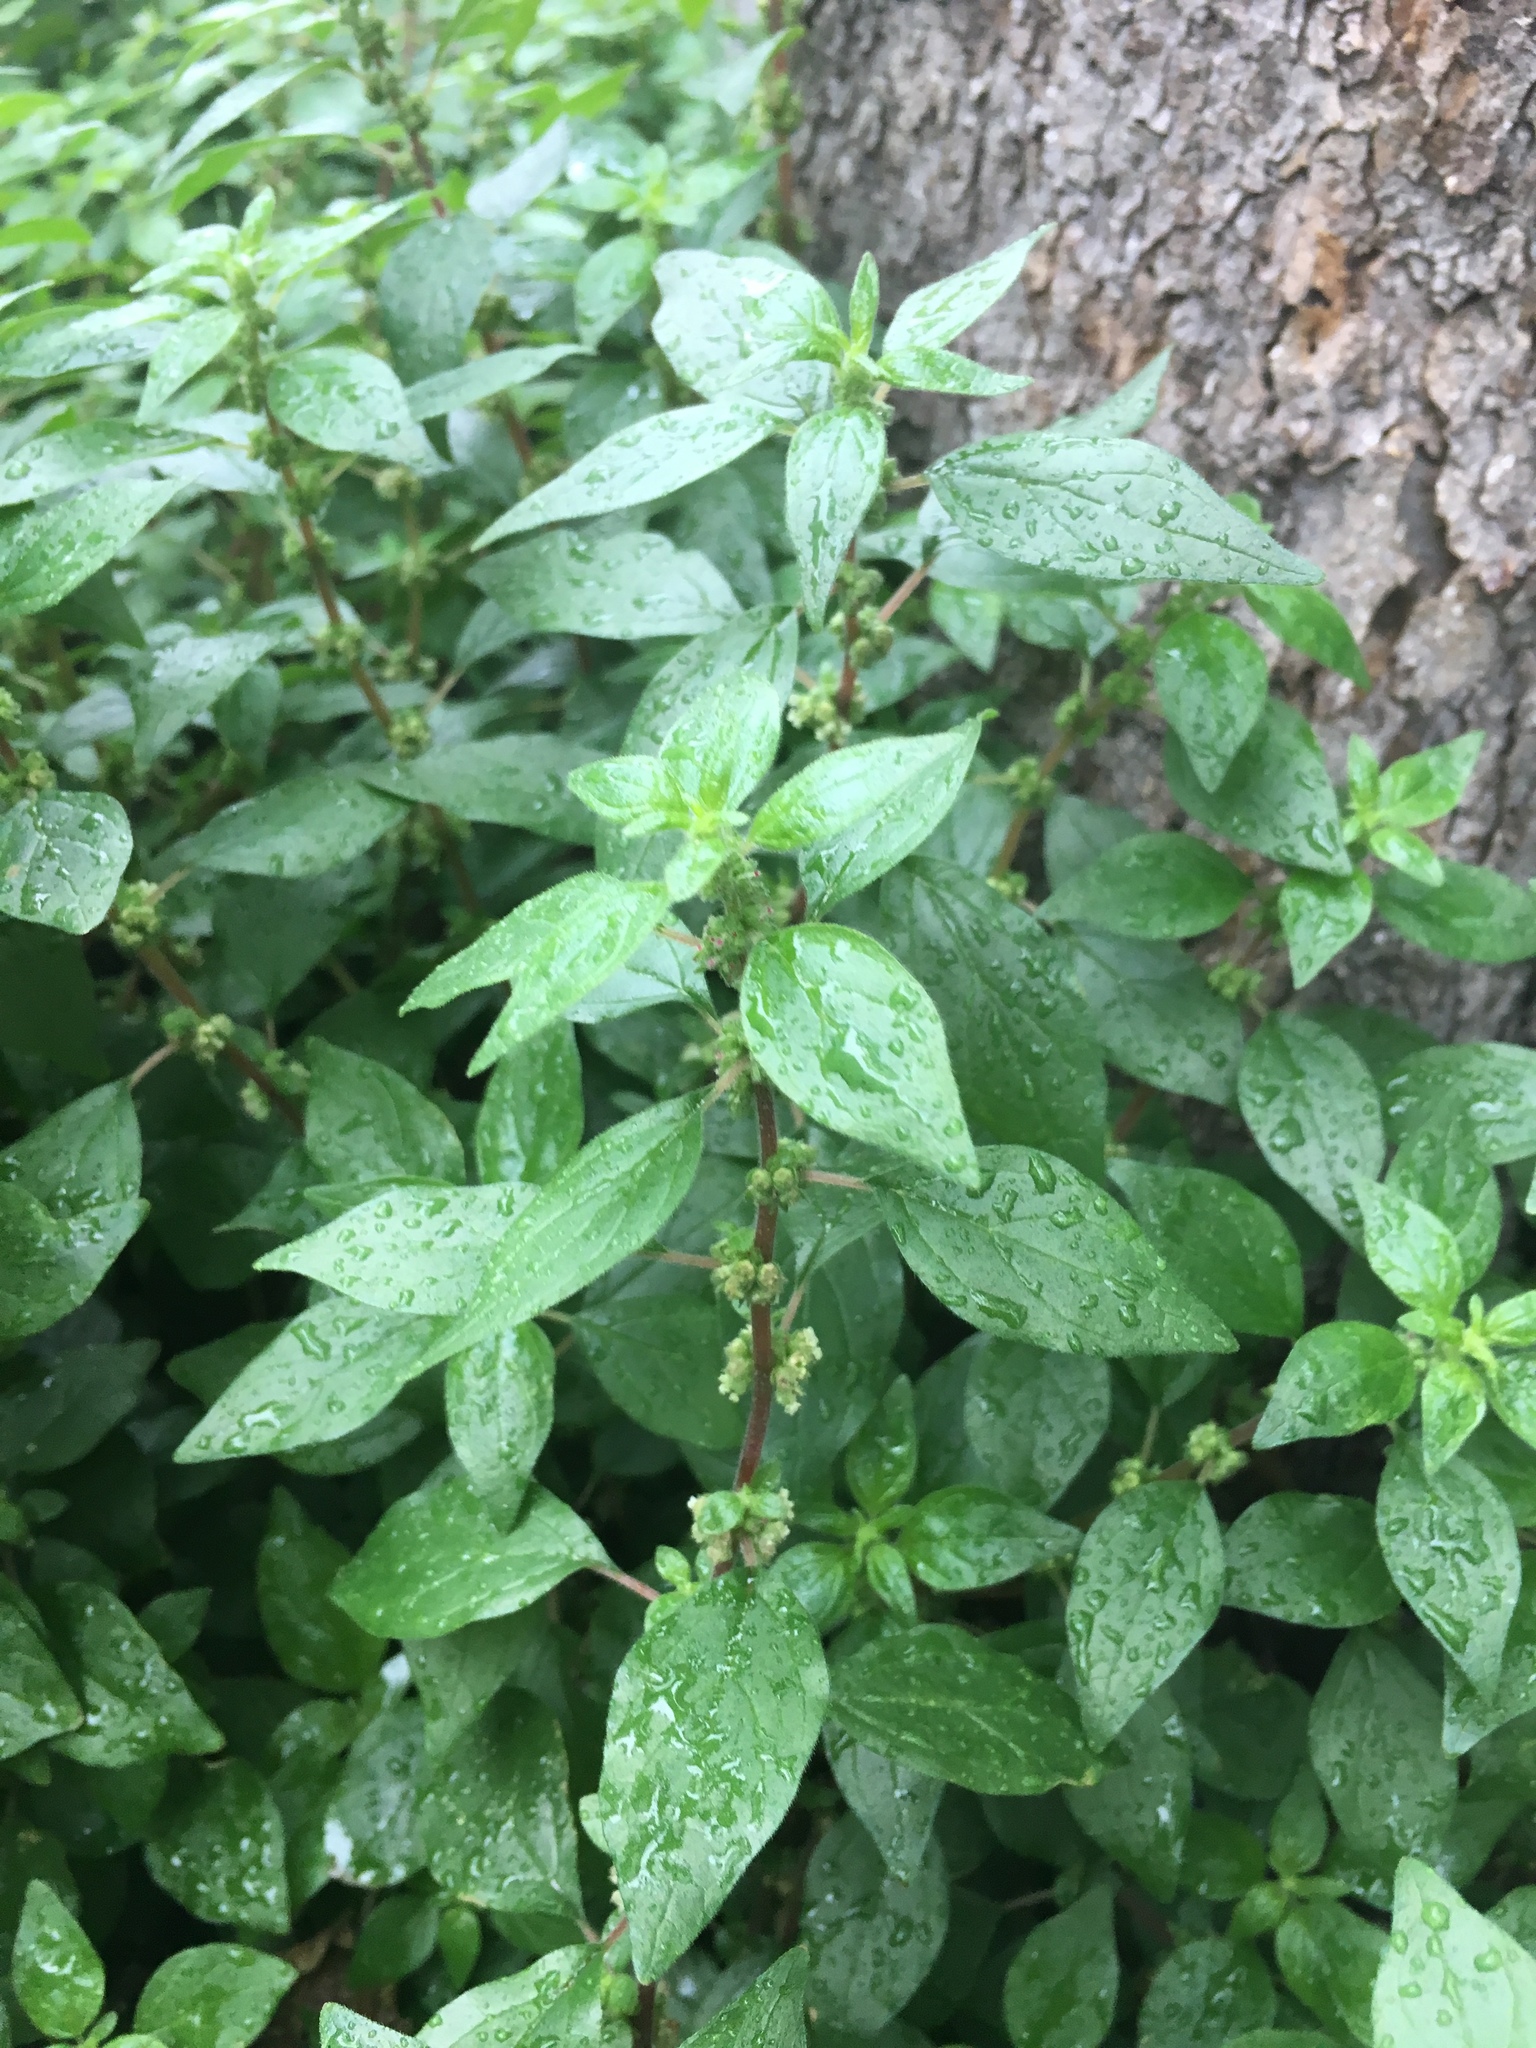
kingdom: Plantae
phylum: Tracheophyta
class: Magnoliopsida
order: Rosales
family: Urticaceae
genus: Parietaria
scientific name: Parietaria judaica
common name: Pellitory-of-the-wall
